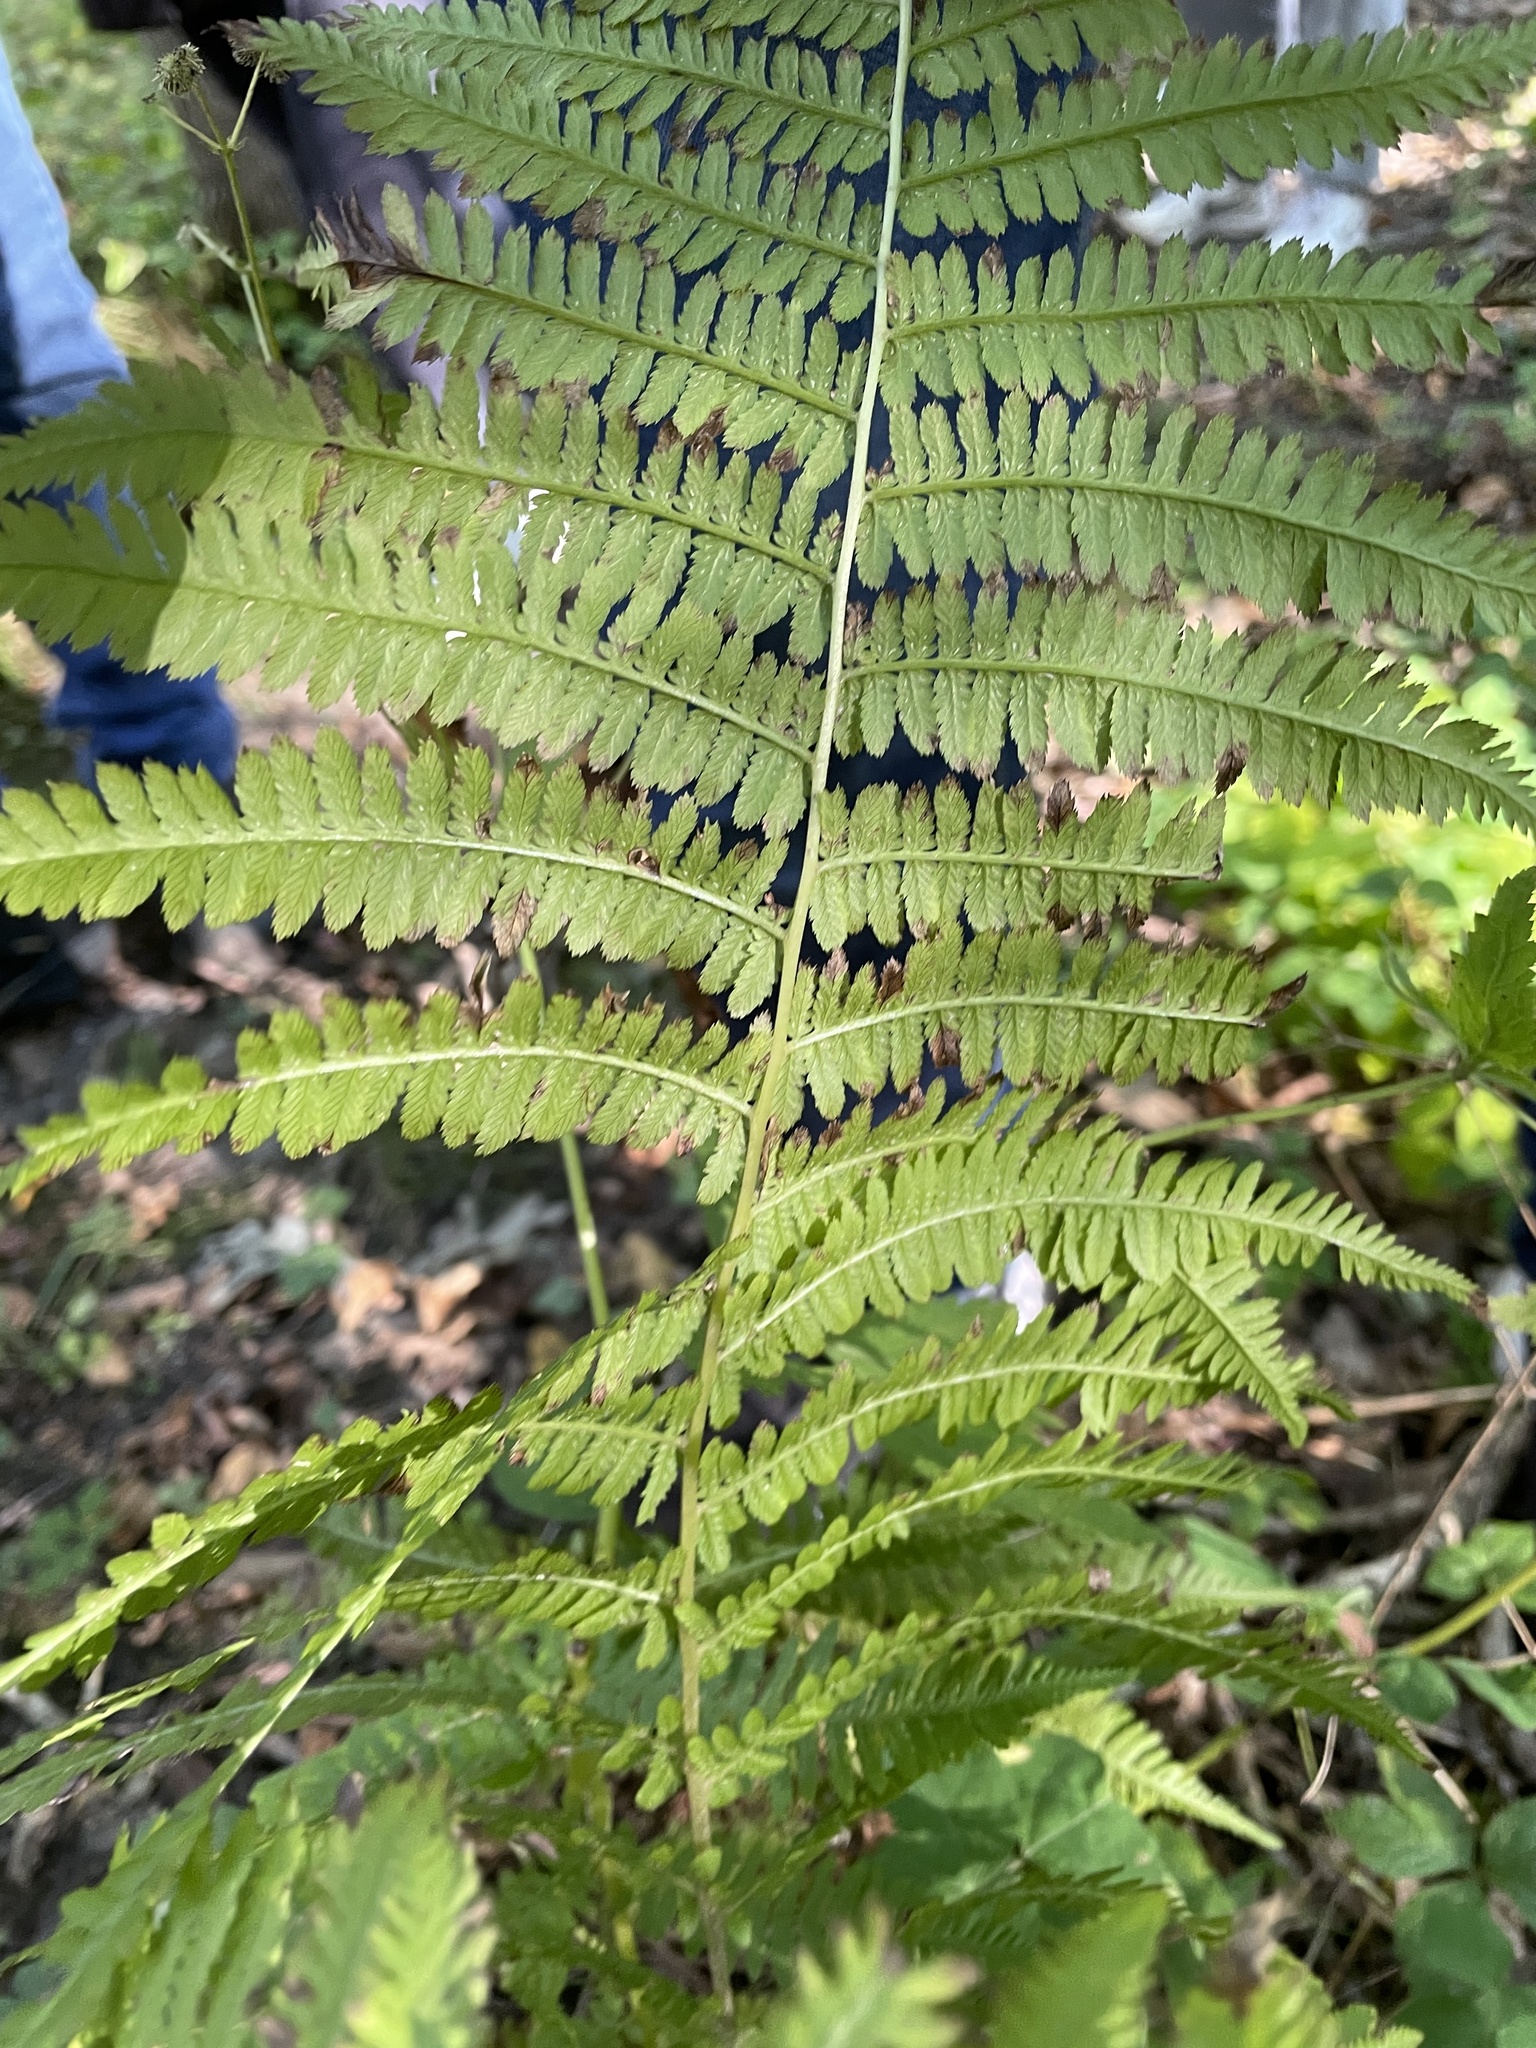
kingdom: Plantae
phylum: Tracheophyta
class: Polypodiopsida
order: Polypodiales
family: Athyriaceae
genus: Athyrium
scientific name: Athyrium angustum
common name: Northern lady fern
